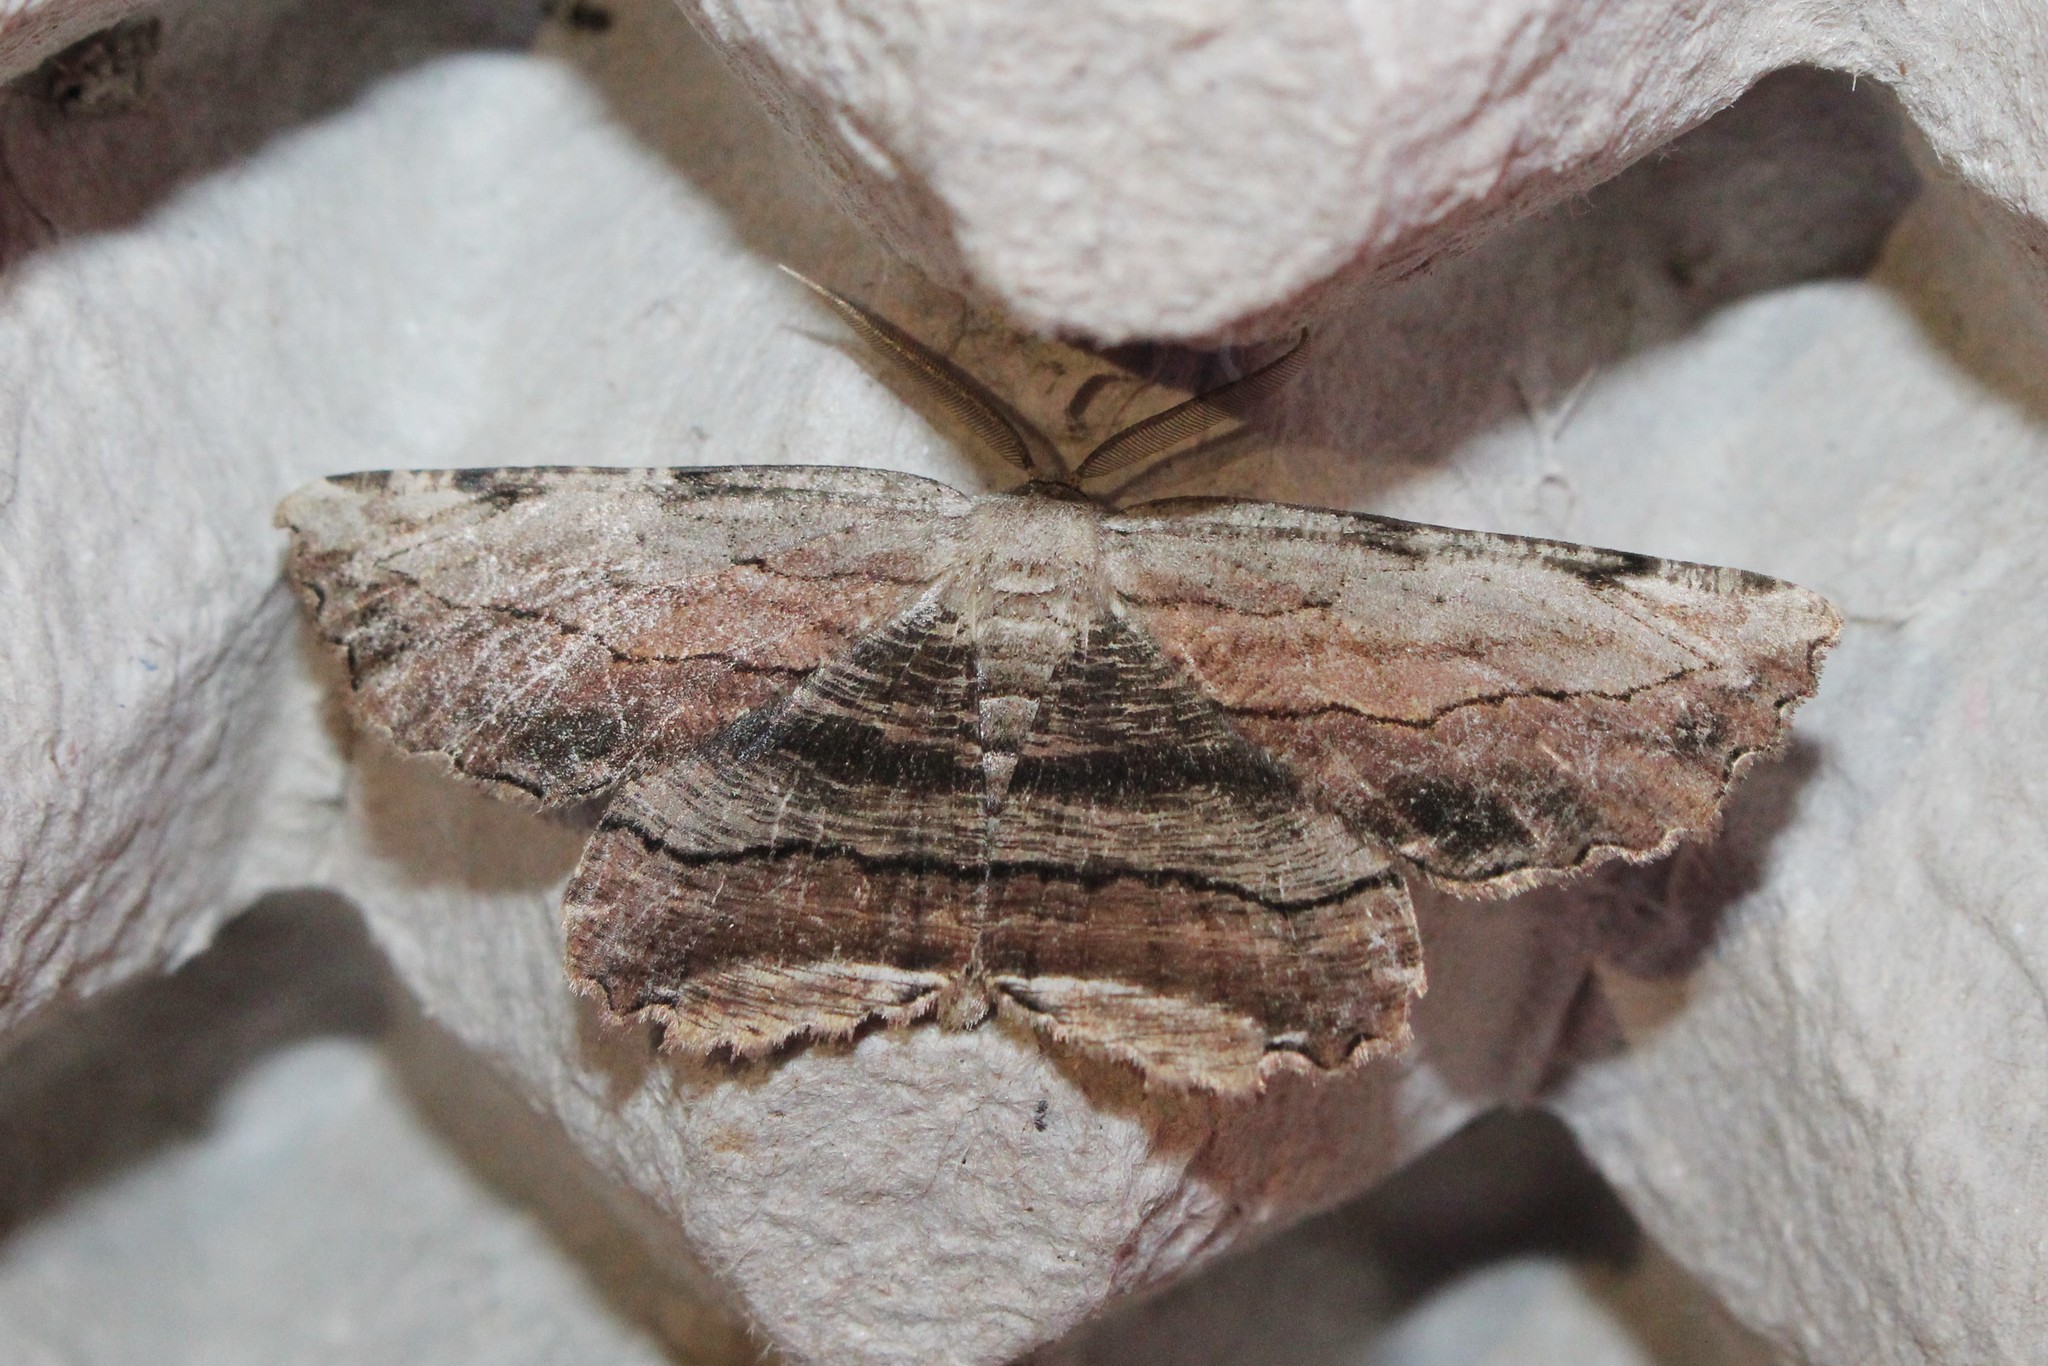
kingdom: Animalia
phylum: Arthropoda
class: Insecta
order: Lepidoptera
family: Geometridae
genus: Lytrosis
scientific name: Lytrosis unitaria
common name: Common lytrosis
